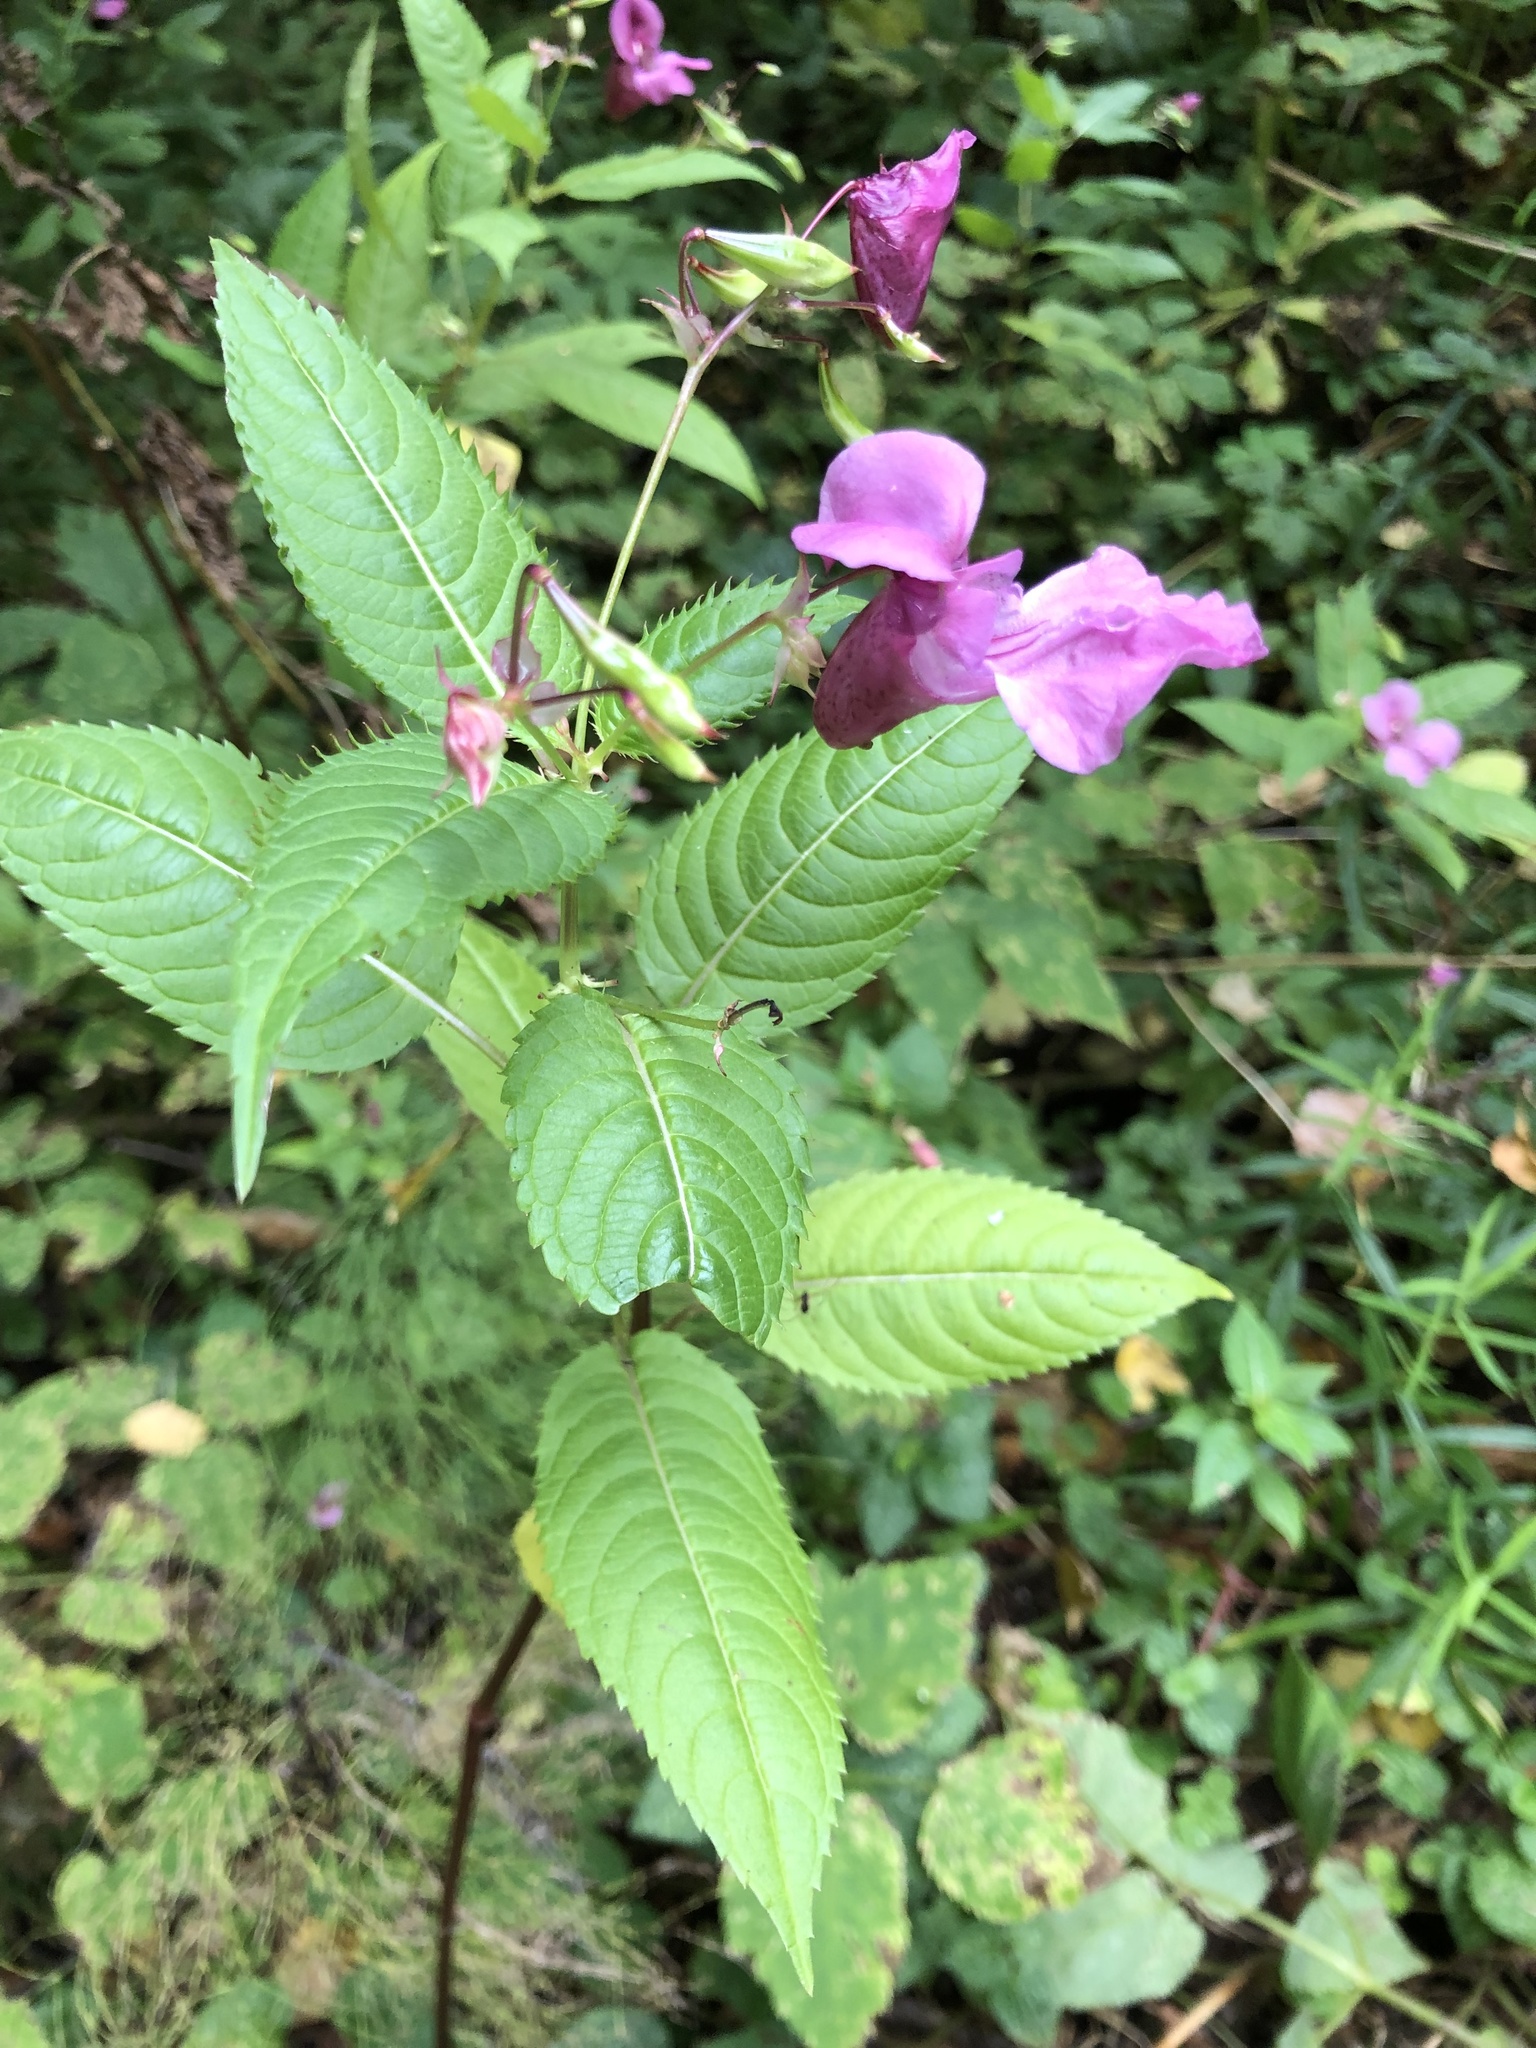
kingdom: Plantae
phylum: Tracheophyta
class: Magnoliopsida
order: Ericales
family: Balsaminaceae
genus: Impatiens
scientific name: Impatiens glandulifera
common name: Himalayan balsam
